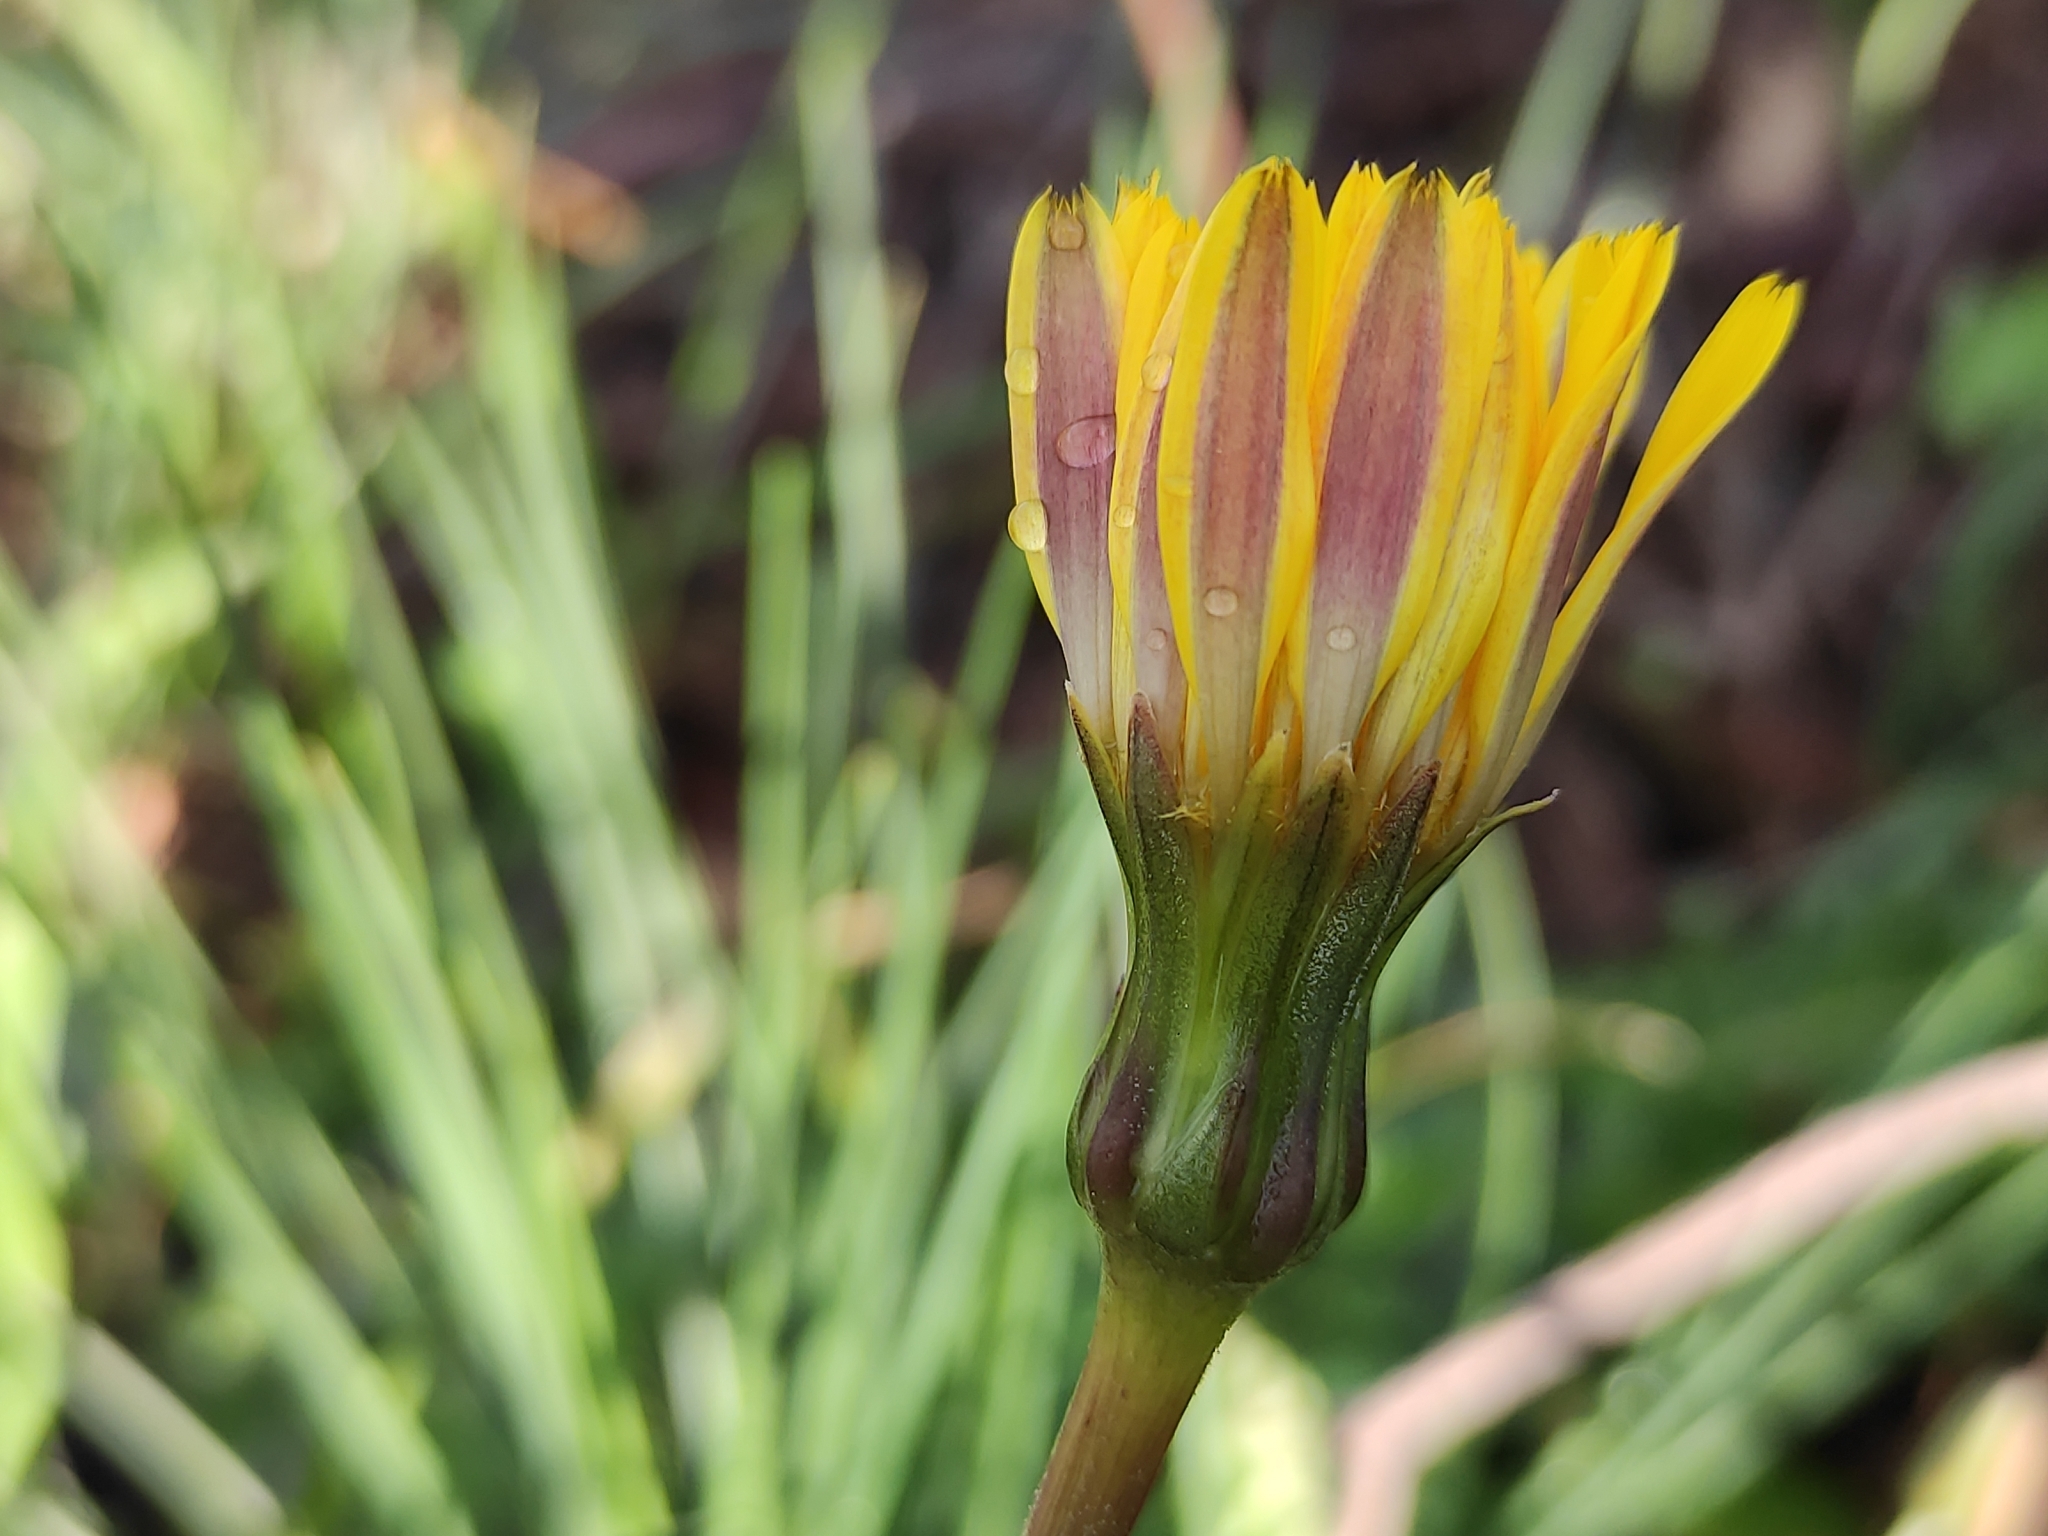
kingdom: Plantae
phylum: Tracheophyta
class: Magnoliopsida
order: Asterales
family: Asteraceae
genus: Hyoseris
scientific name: Hyoseris radiata
